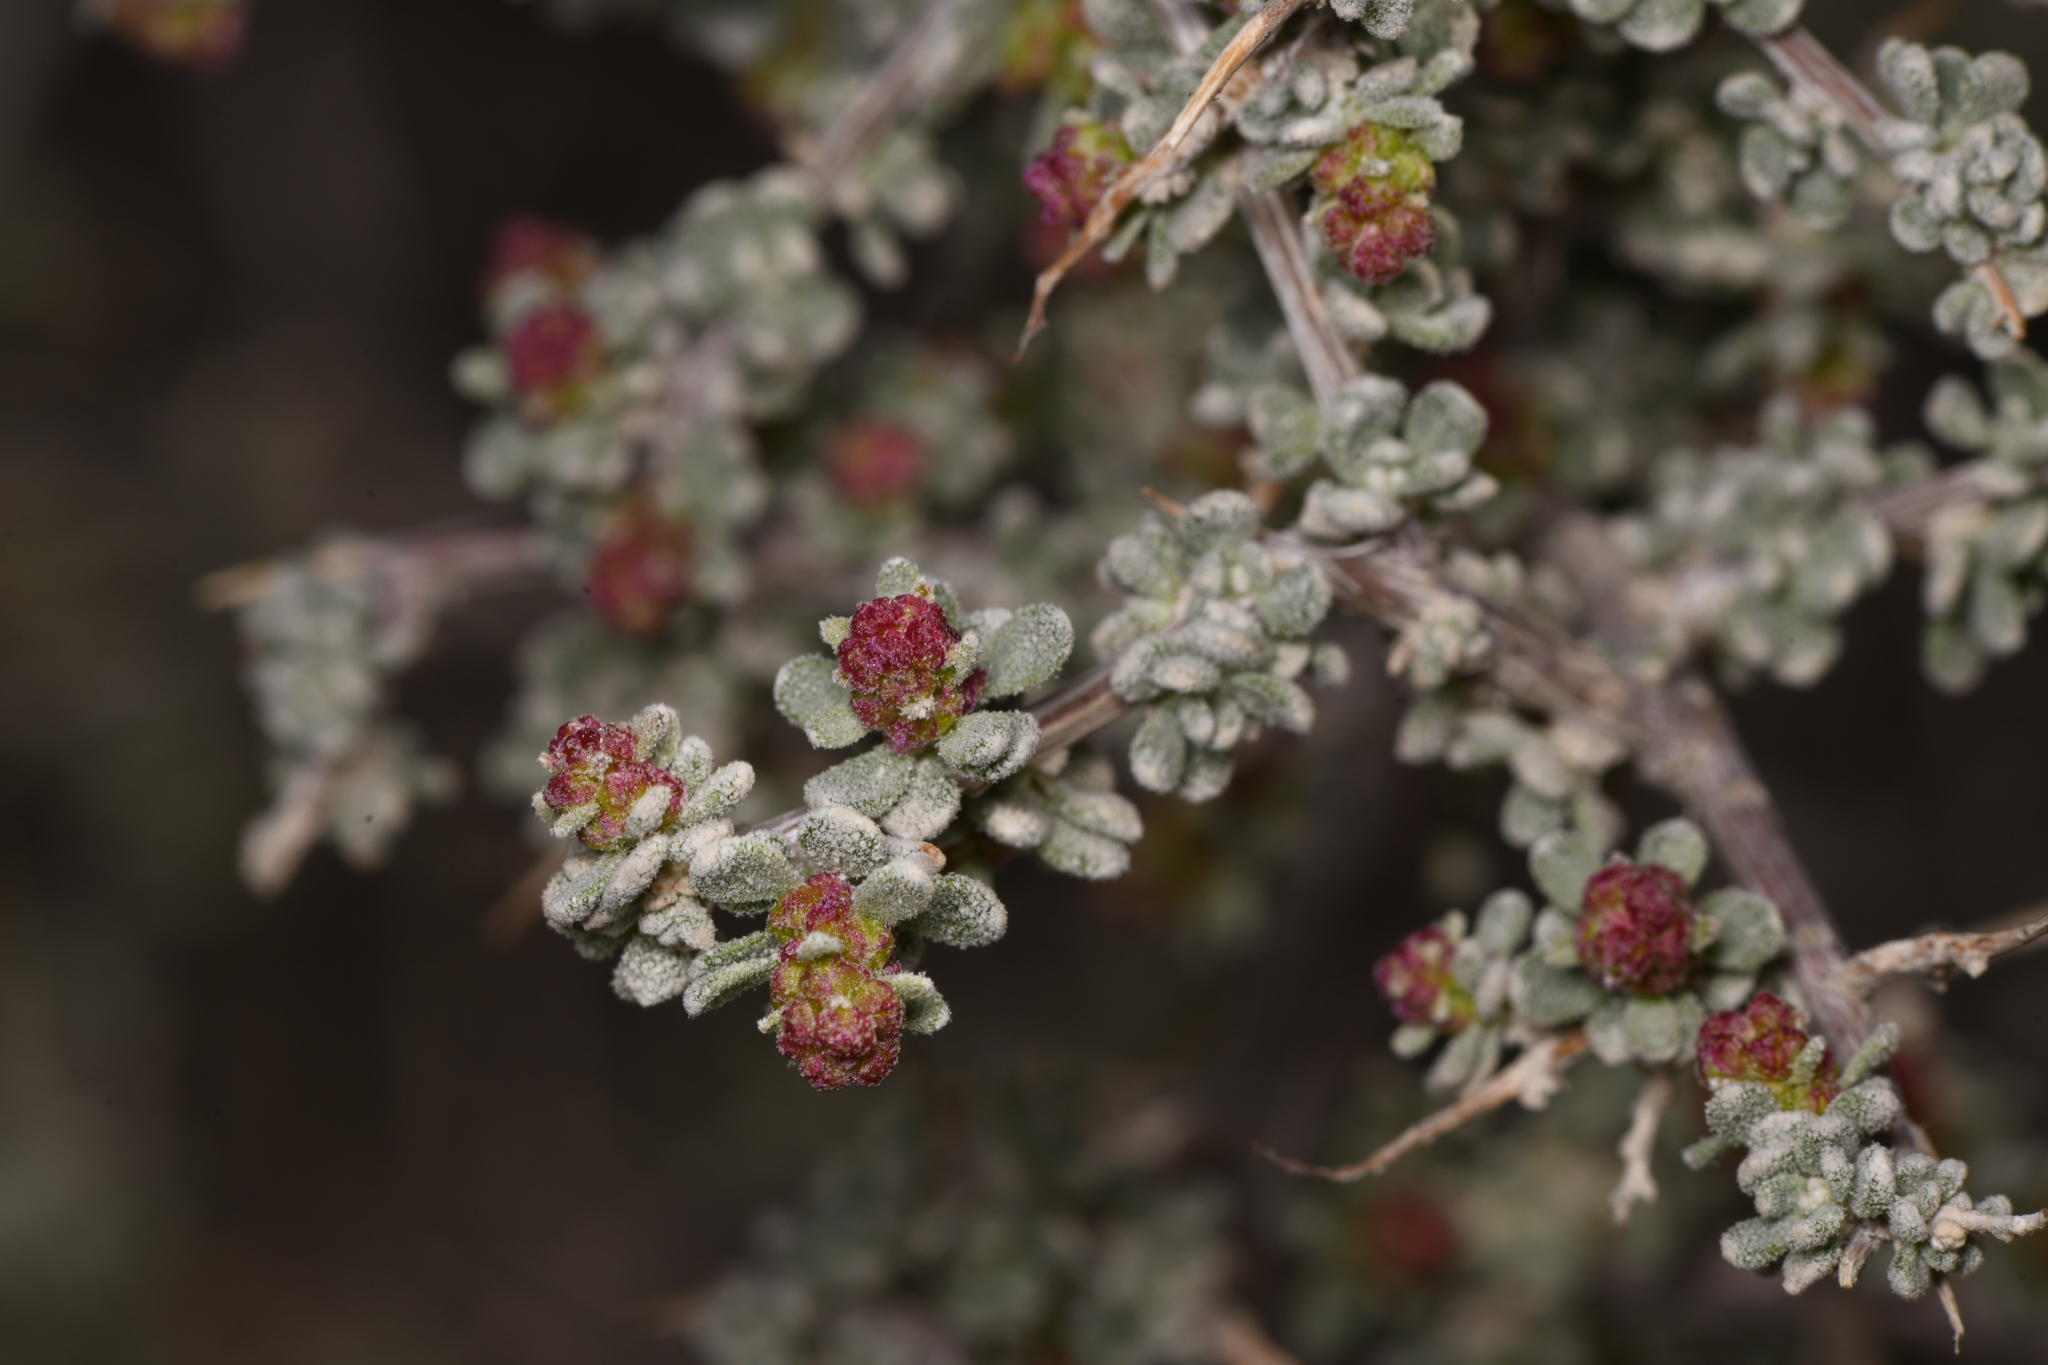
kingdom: Plantae
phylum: Tracheophyta
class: Magnoliopsida
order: Caryophyllales
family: Amaranthaceae
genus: Grayia
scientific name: Grayia spinosa
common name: Spiny hopsage
